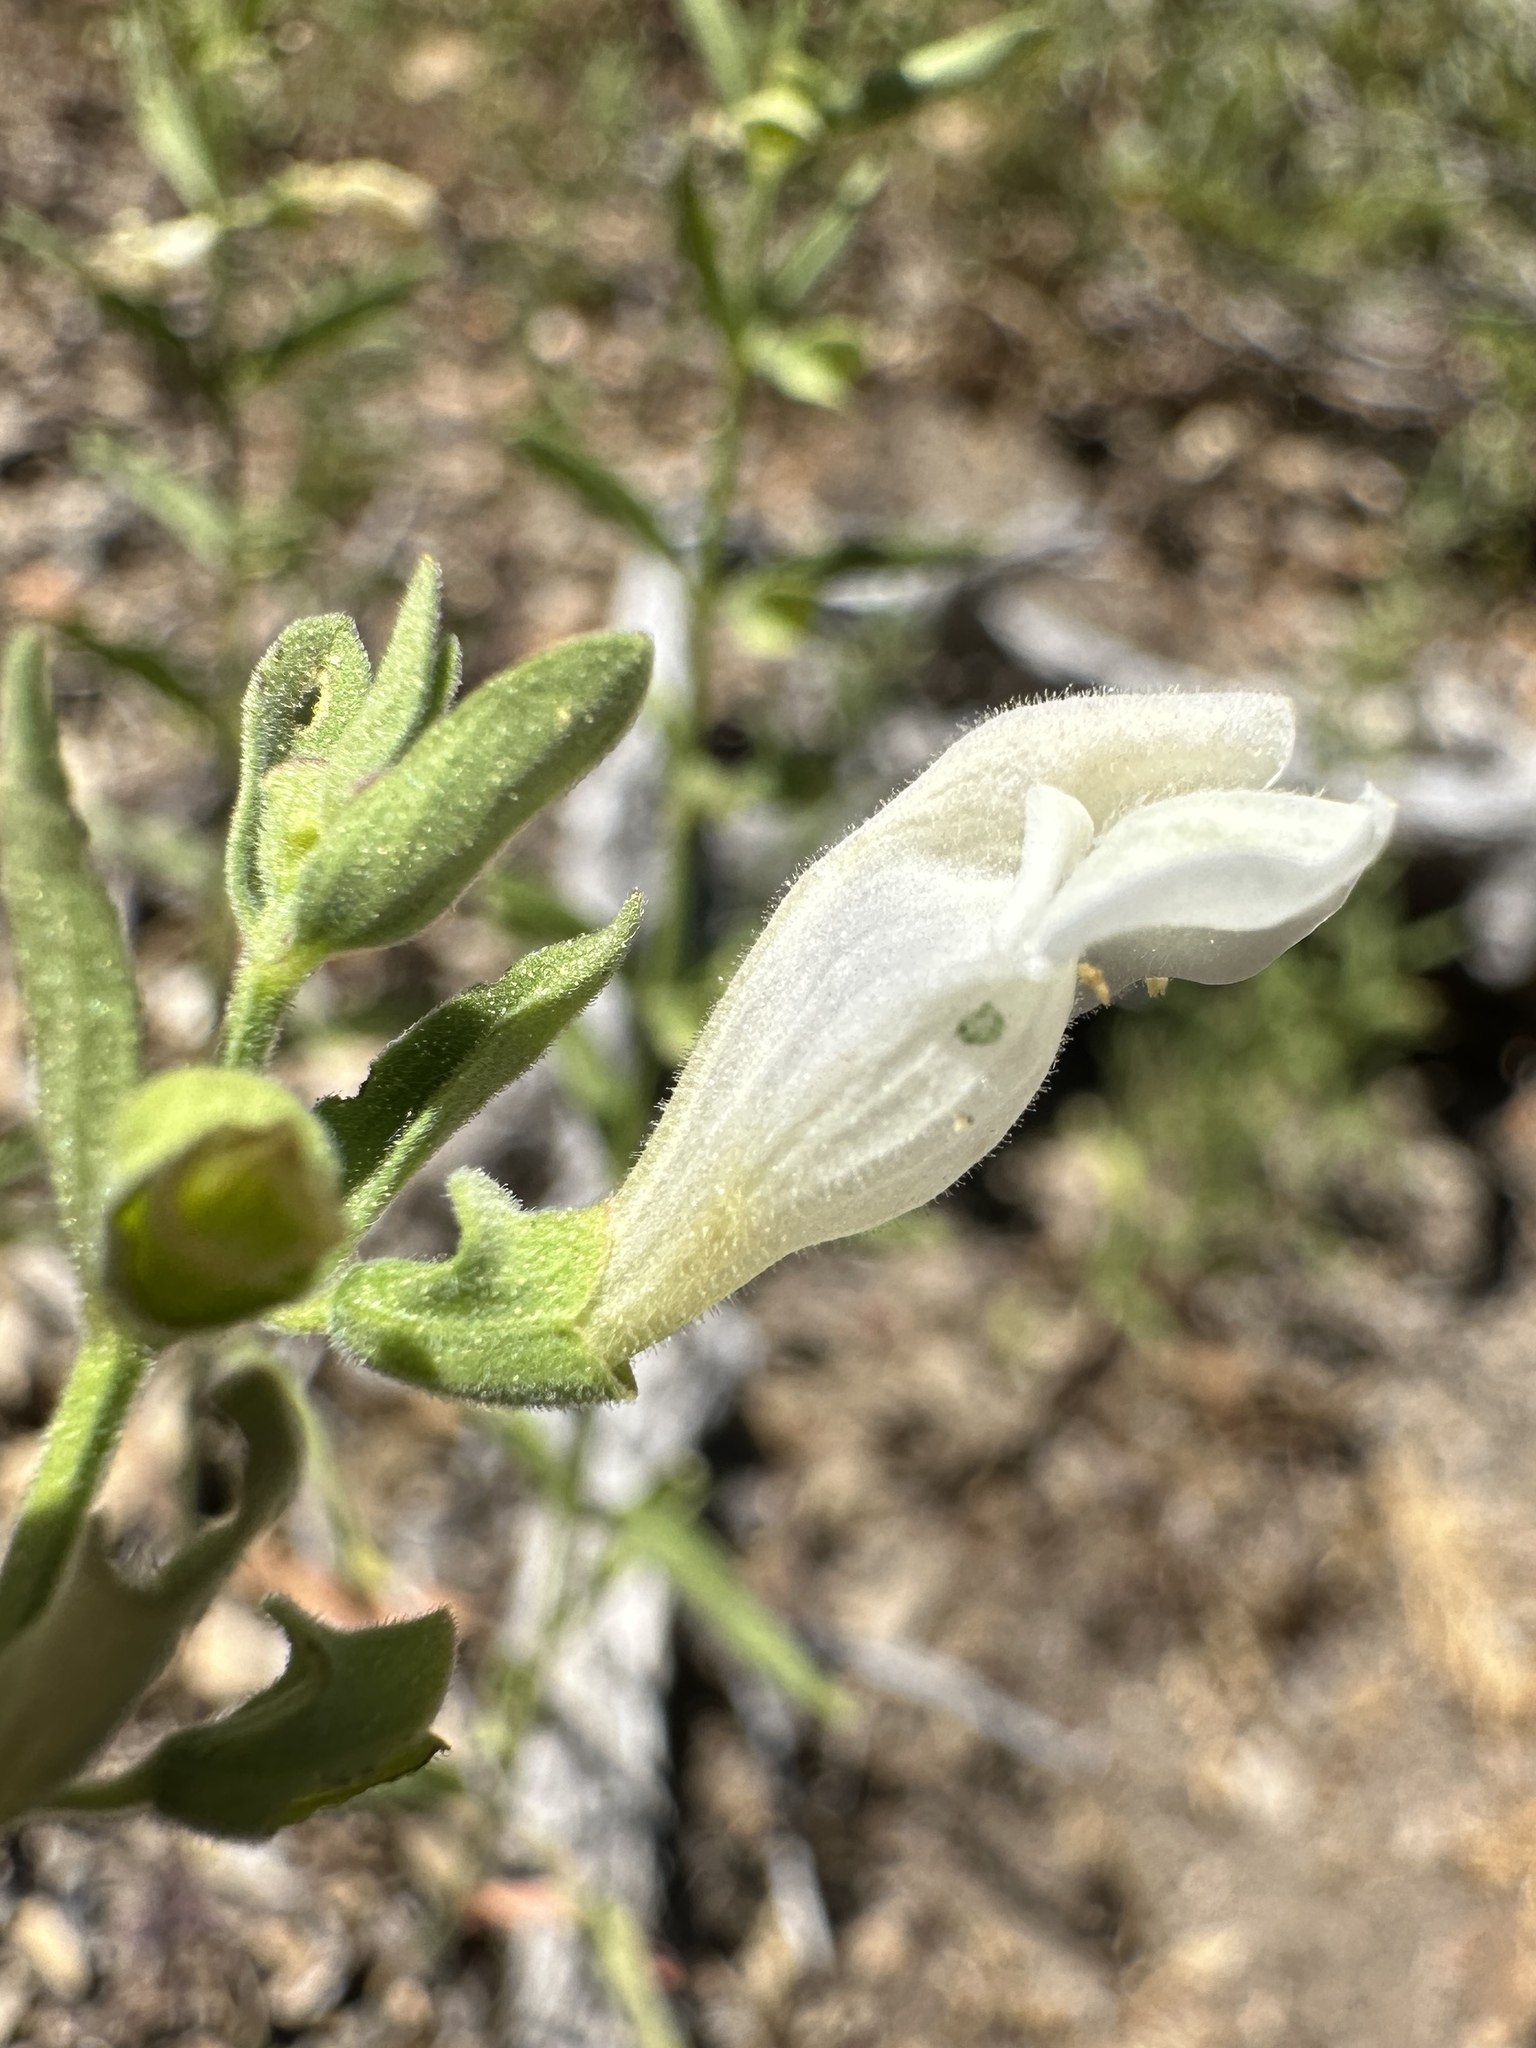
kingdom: Plantae
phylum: Tracheophyta
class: Magnoliopsida
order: Lamiales
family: Lamiaceae
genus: Scutellaria
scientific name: Scutellaria californica
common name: California scullcap
